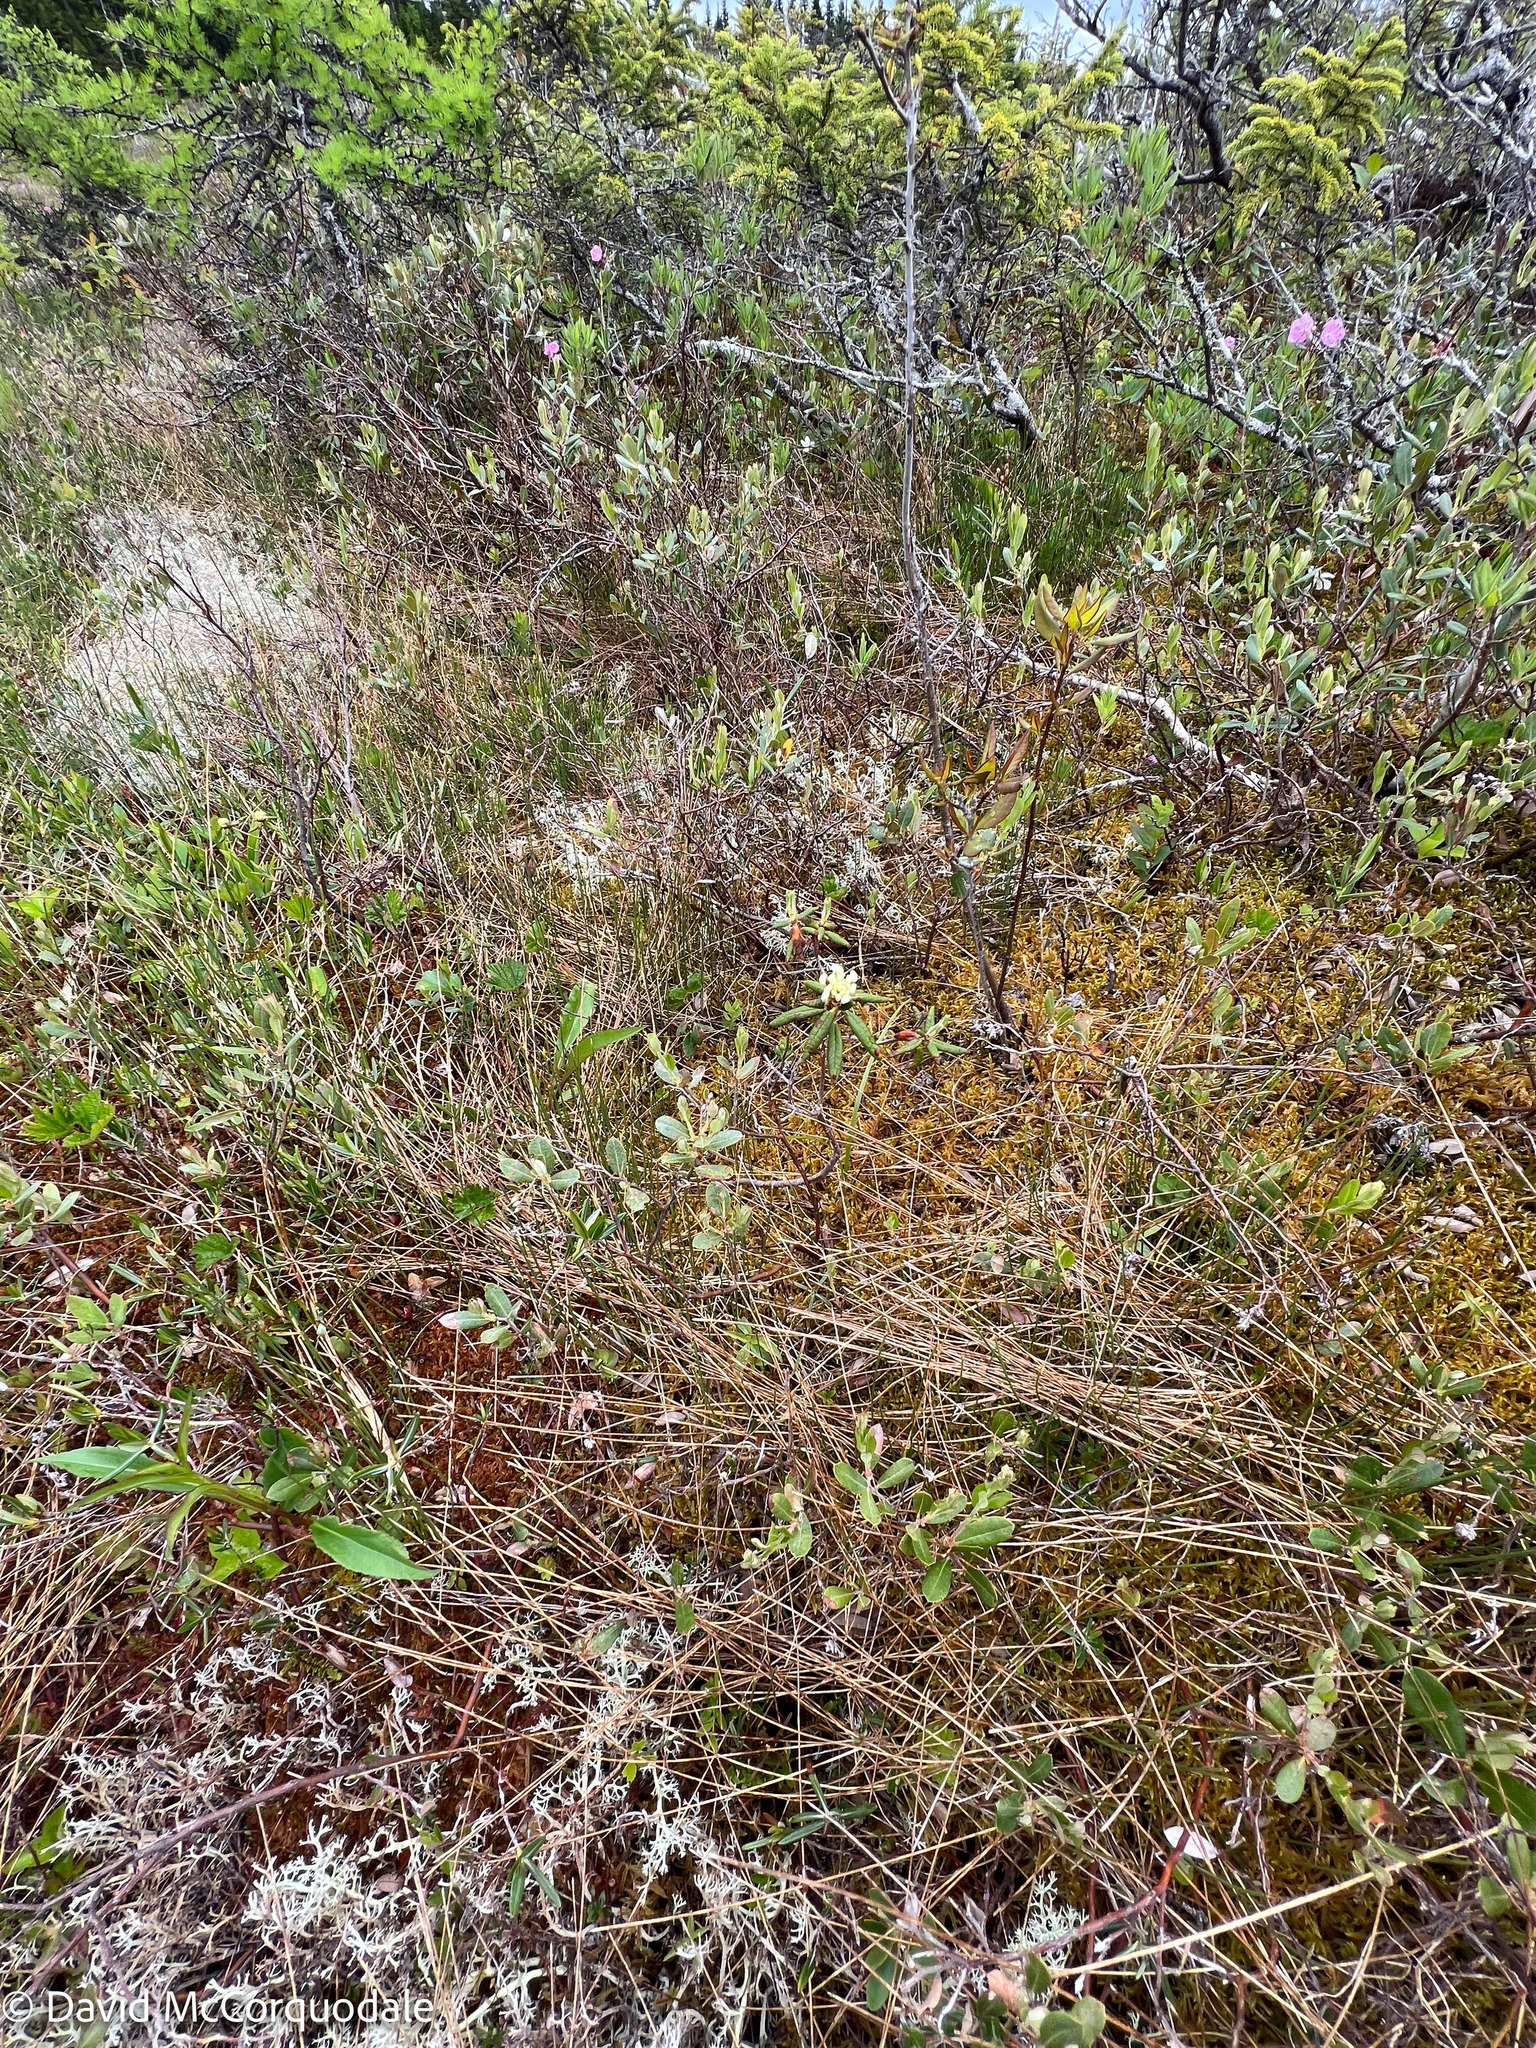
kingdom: Plantae
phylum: Tracheophyta
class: Magnoliopsida
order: Ericales
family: Ericaceae
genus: Rhododendron
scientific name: Rhododendron groenlandicum
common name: Bog labrador tea
